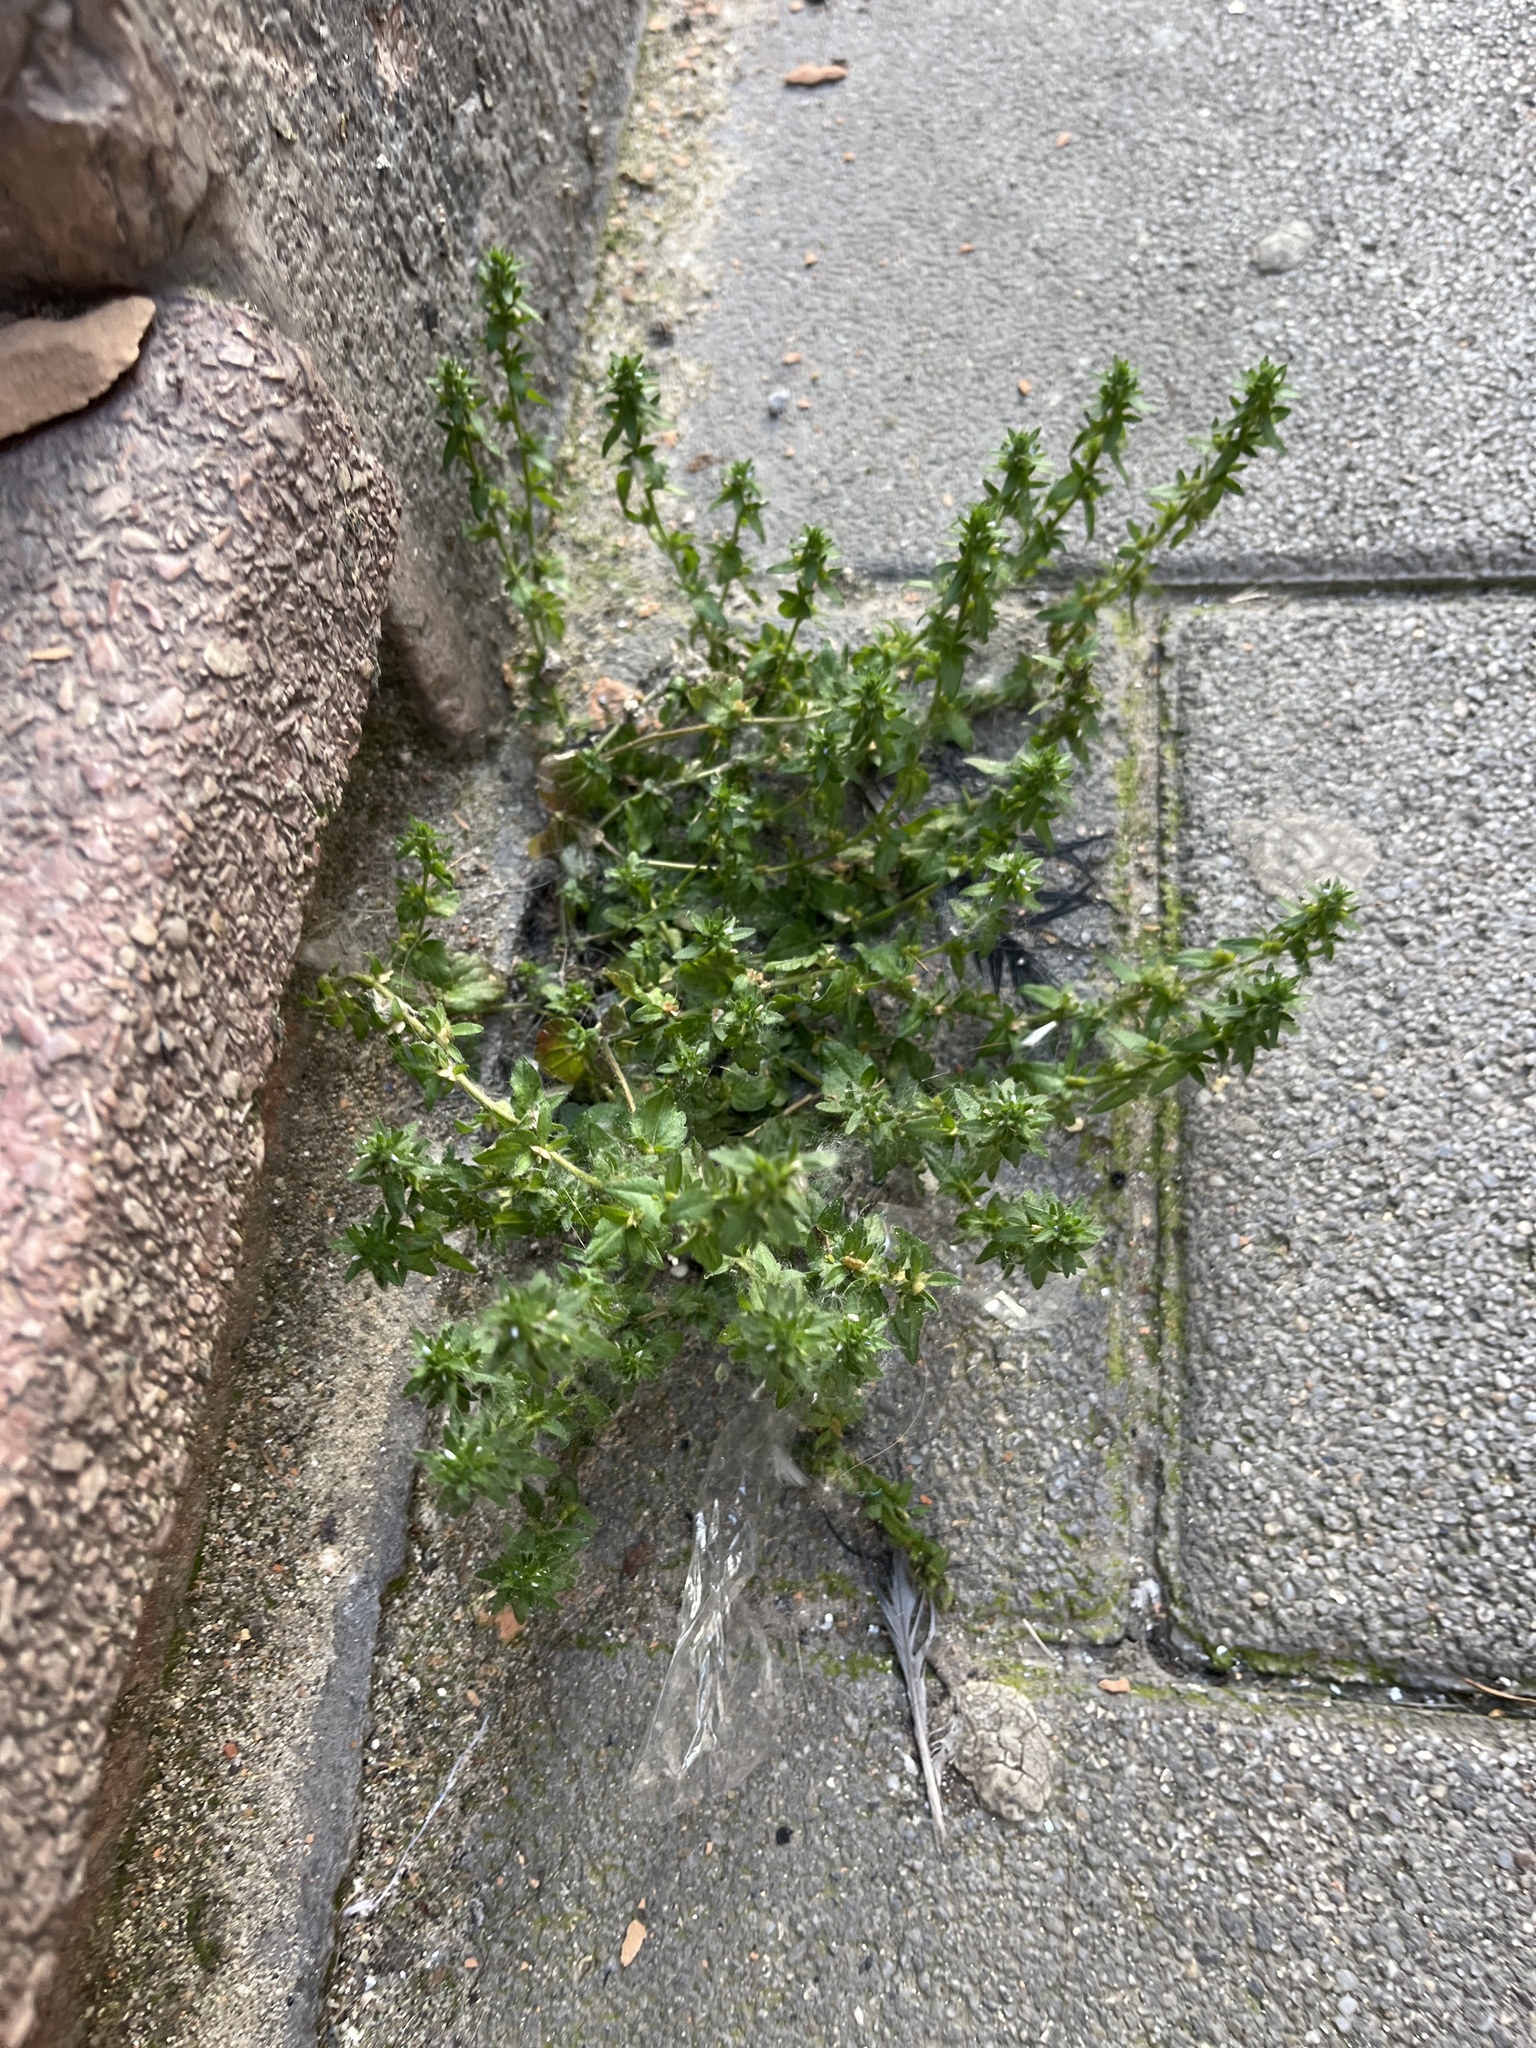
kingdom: Plantae
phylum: Tracheophyta
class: Magnoliopsida
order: Lamiales
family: Plantaginaceae
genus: Veronica
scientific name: Veronica arvensis
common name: Corn speedwell
